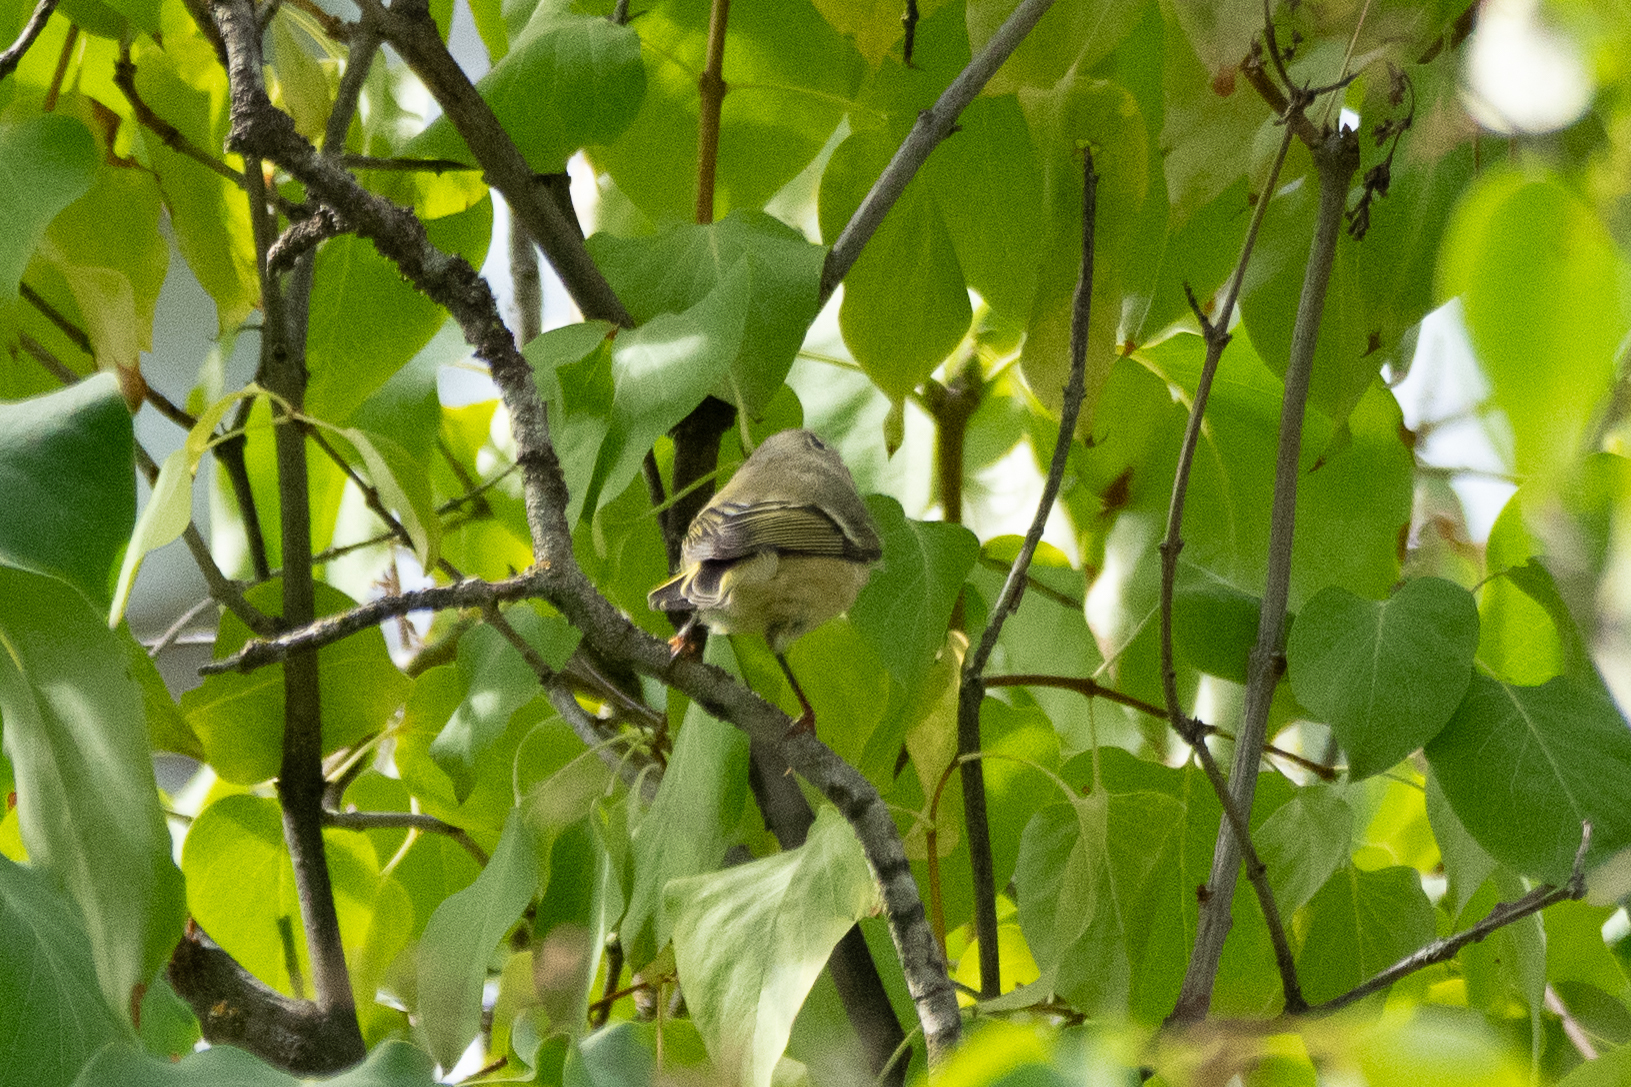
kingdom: Animalia
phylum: Chordata
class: Aves
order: Passeriformes
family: Regulidae
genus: Regulus
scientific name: Regulus calendula
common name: Ruby-crowned kinglet
